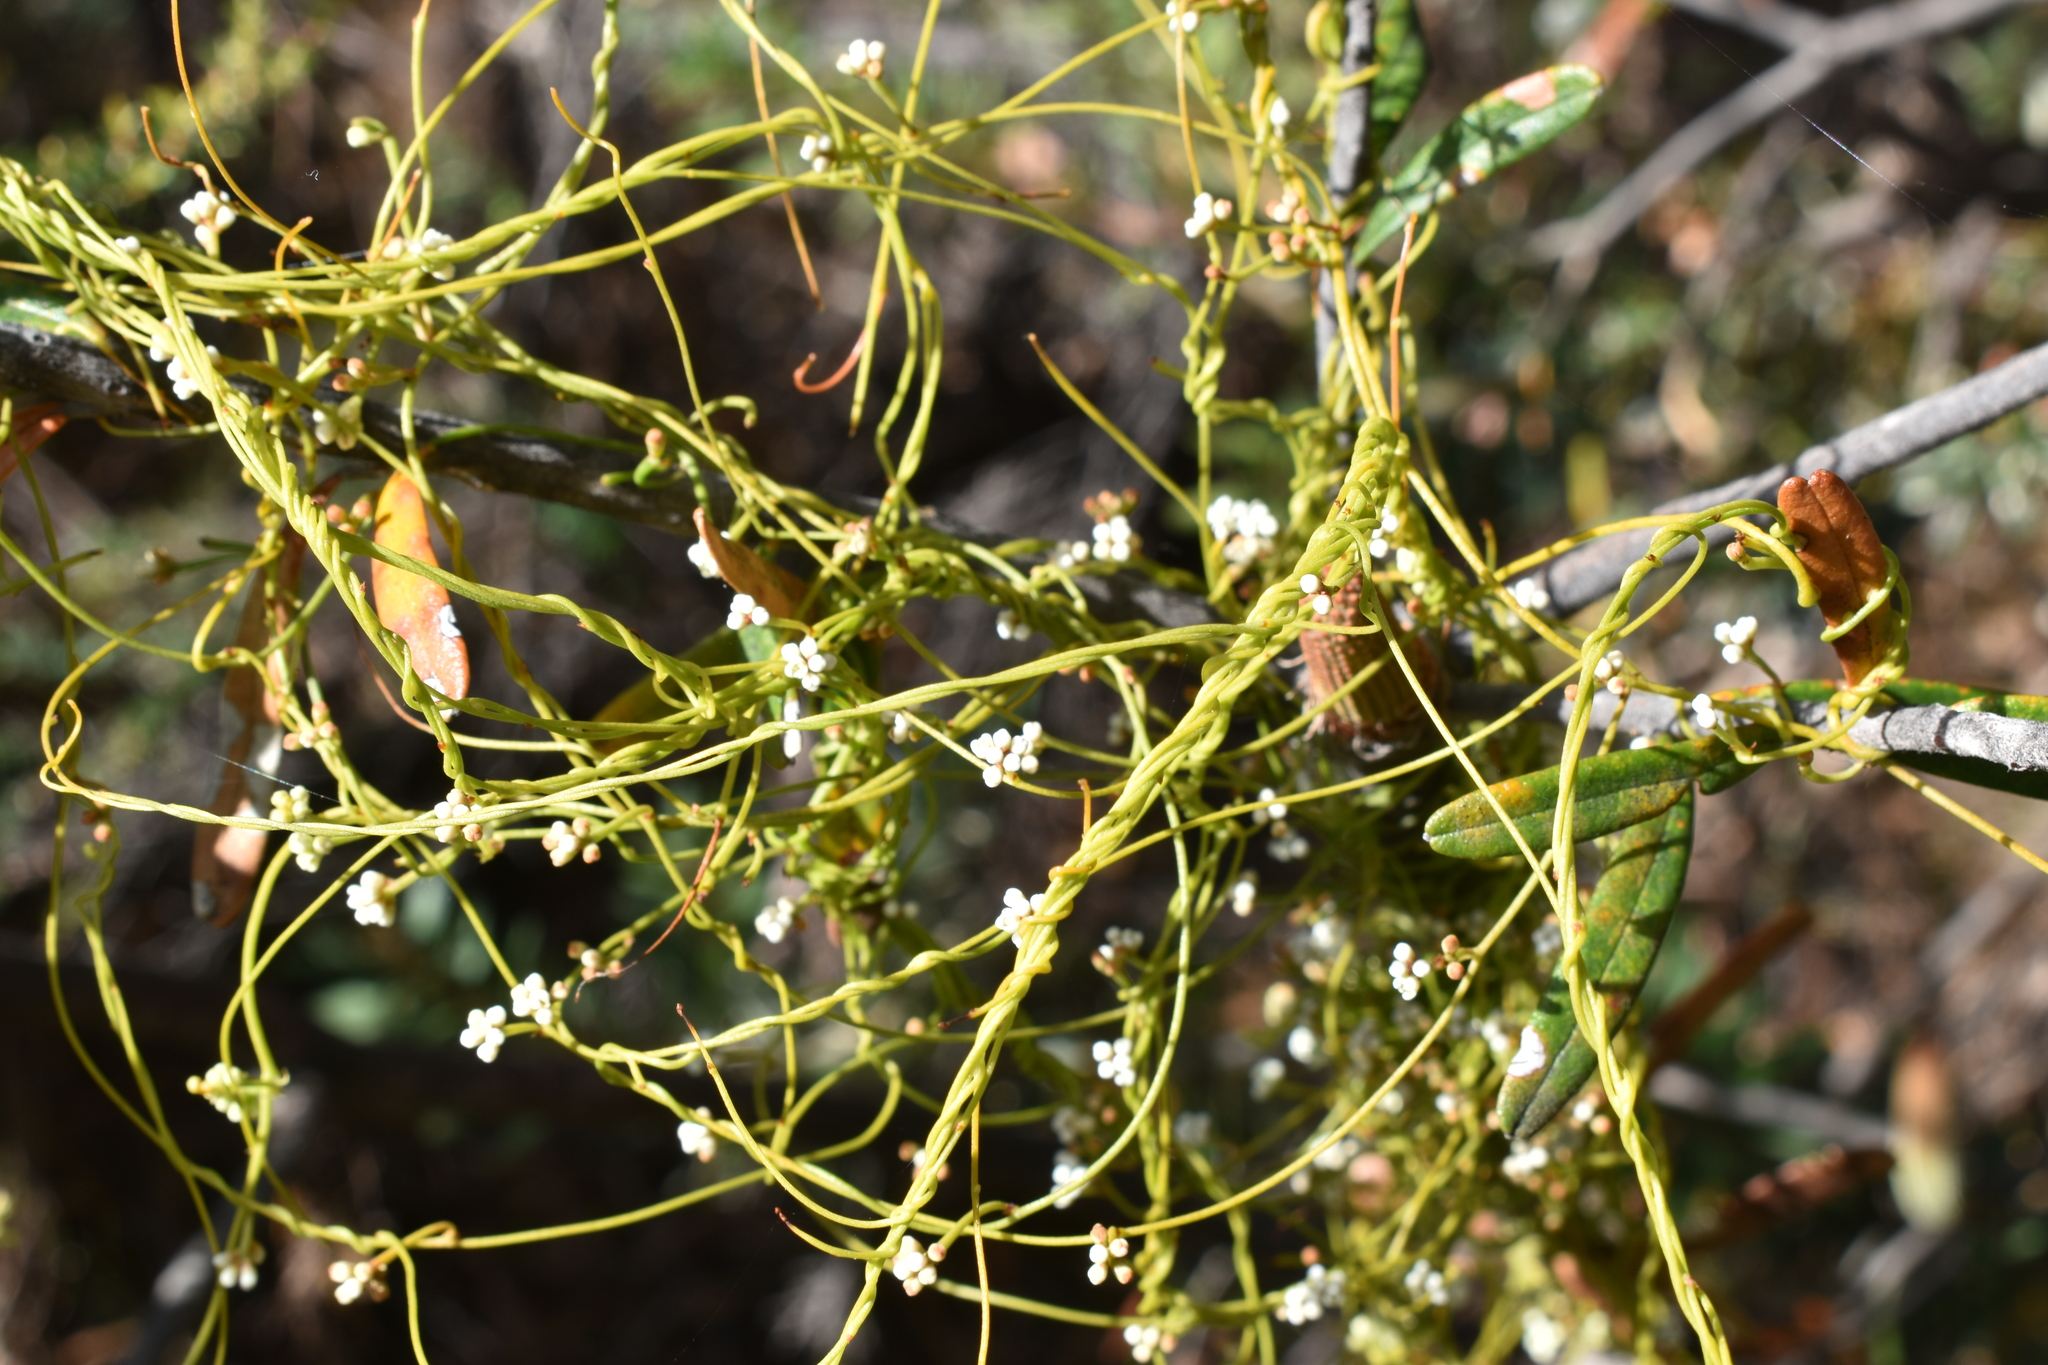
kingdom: Plantae
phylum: Tracheophyta
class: Magnoliopsida
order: Laurales
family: Lauraceae
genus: Cassytha
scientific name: Cassytha glabella
